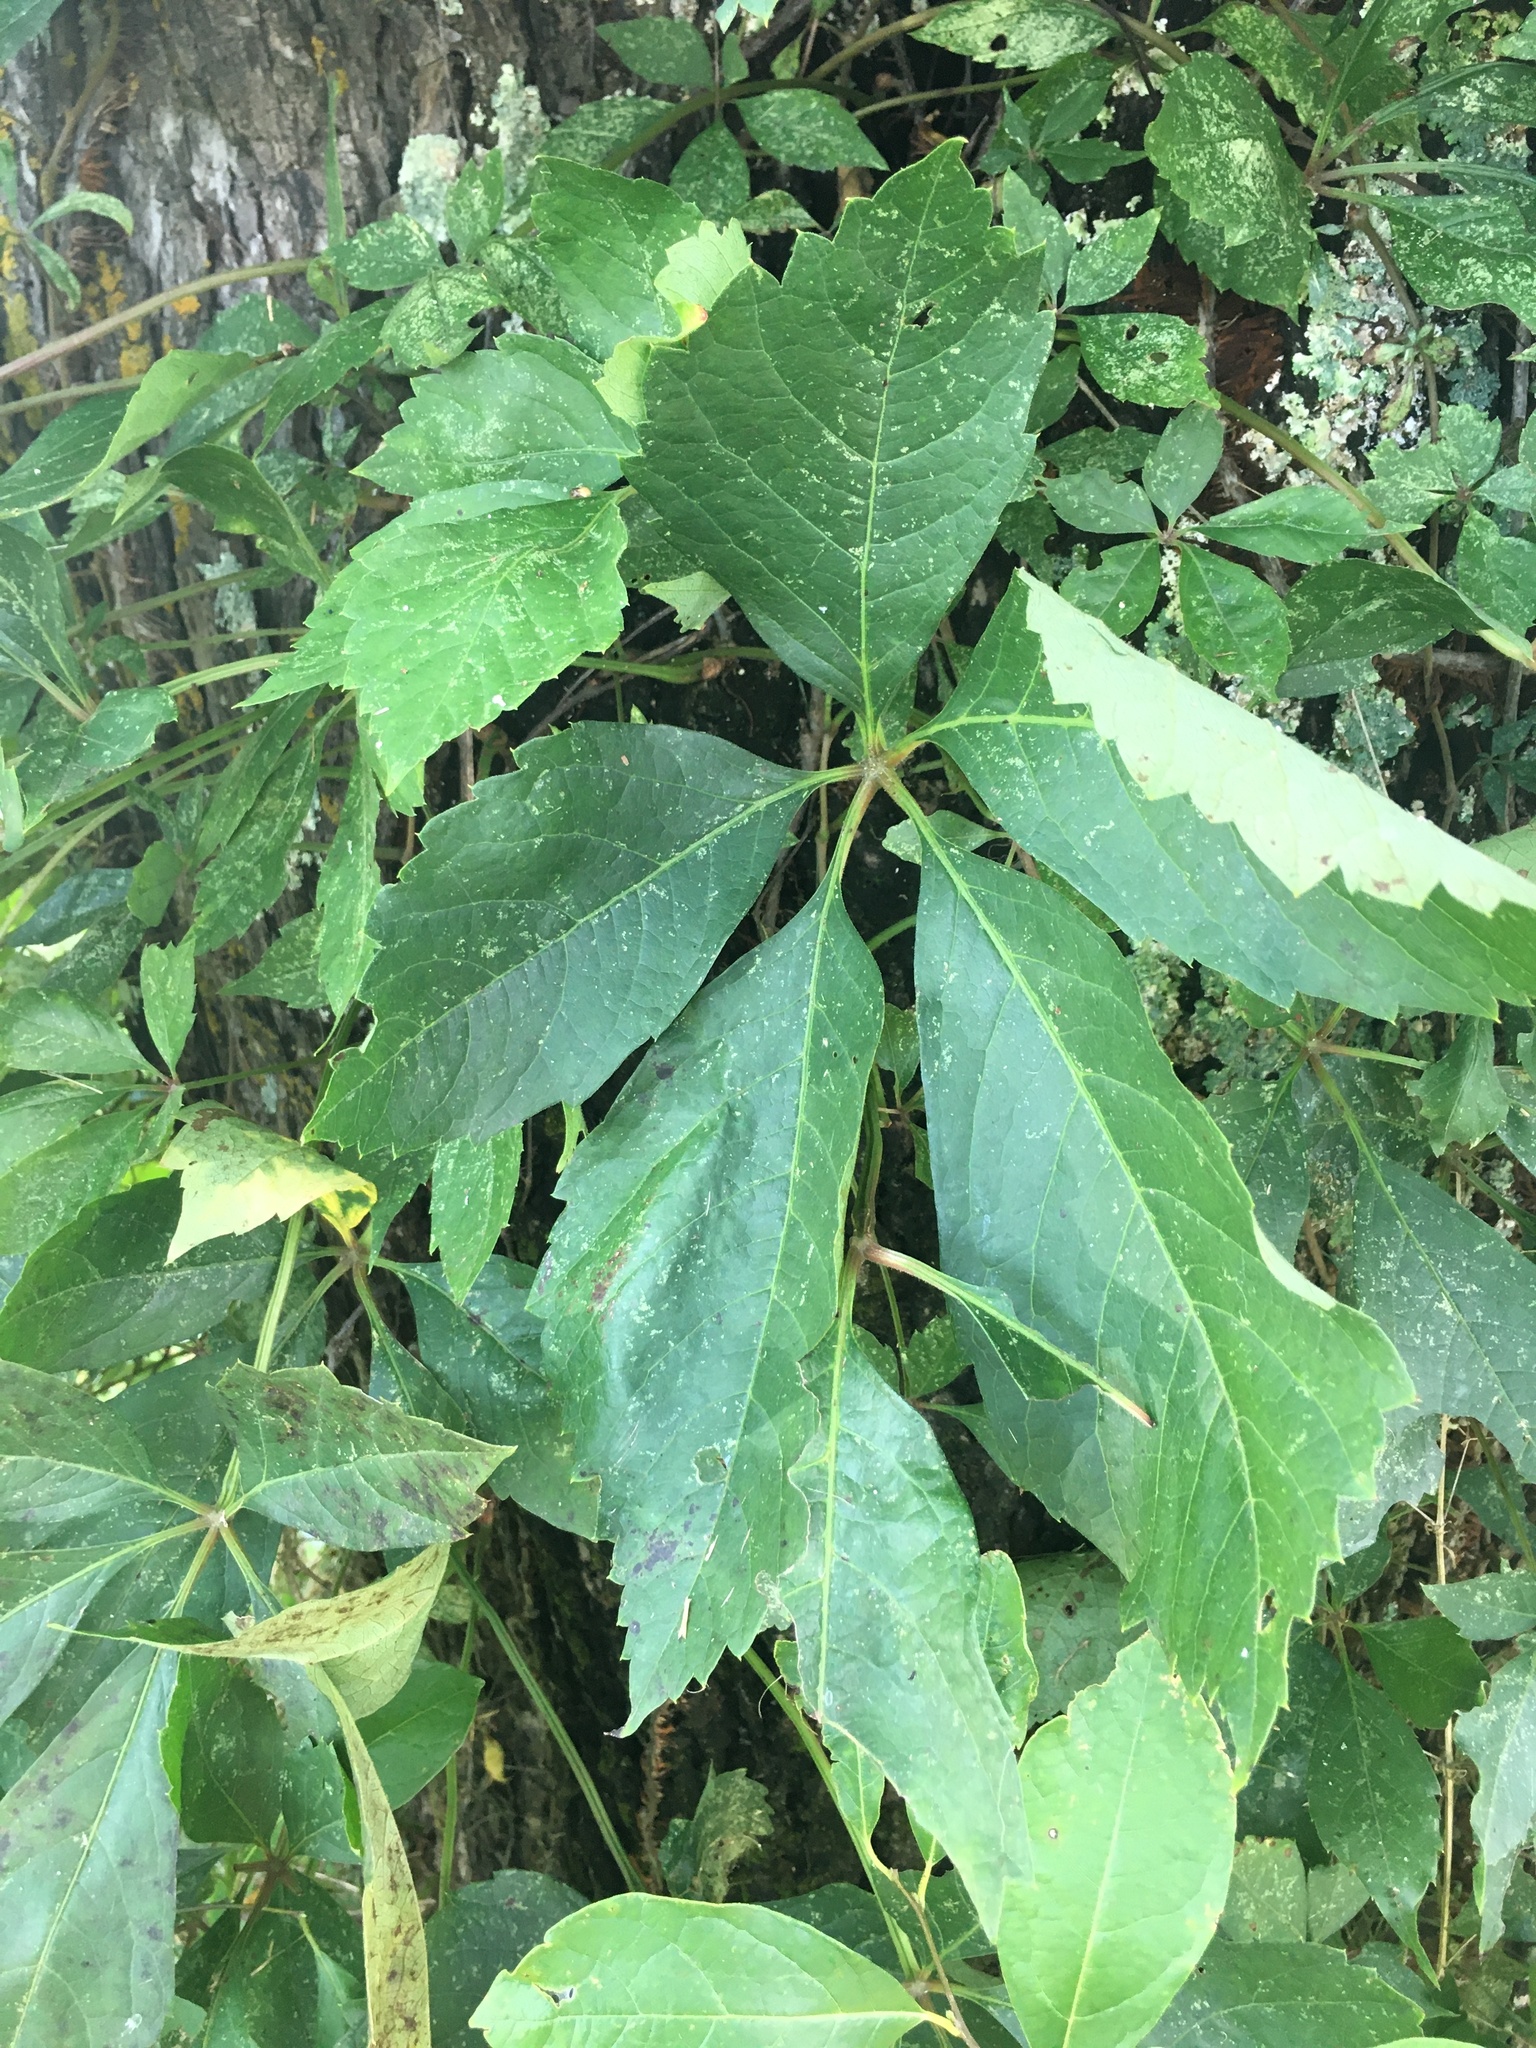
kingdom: Plantae
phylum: Tracheophyta
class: Magnoliopsida
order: Vitales
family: Vitaceae
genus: Parthenocissus
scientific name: Parthenocissus quinquefolia
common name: Virginia-creeper
